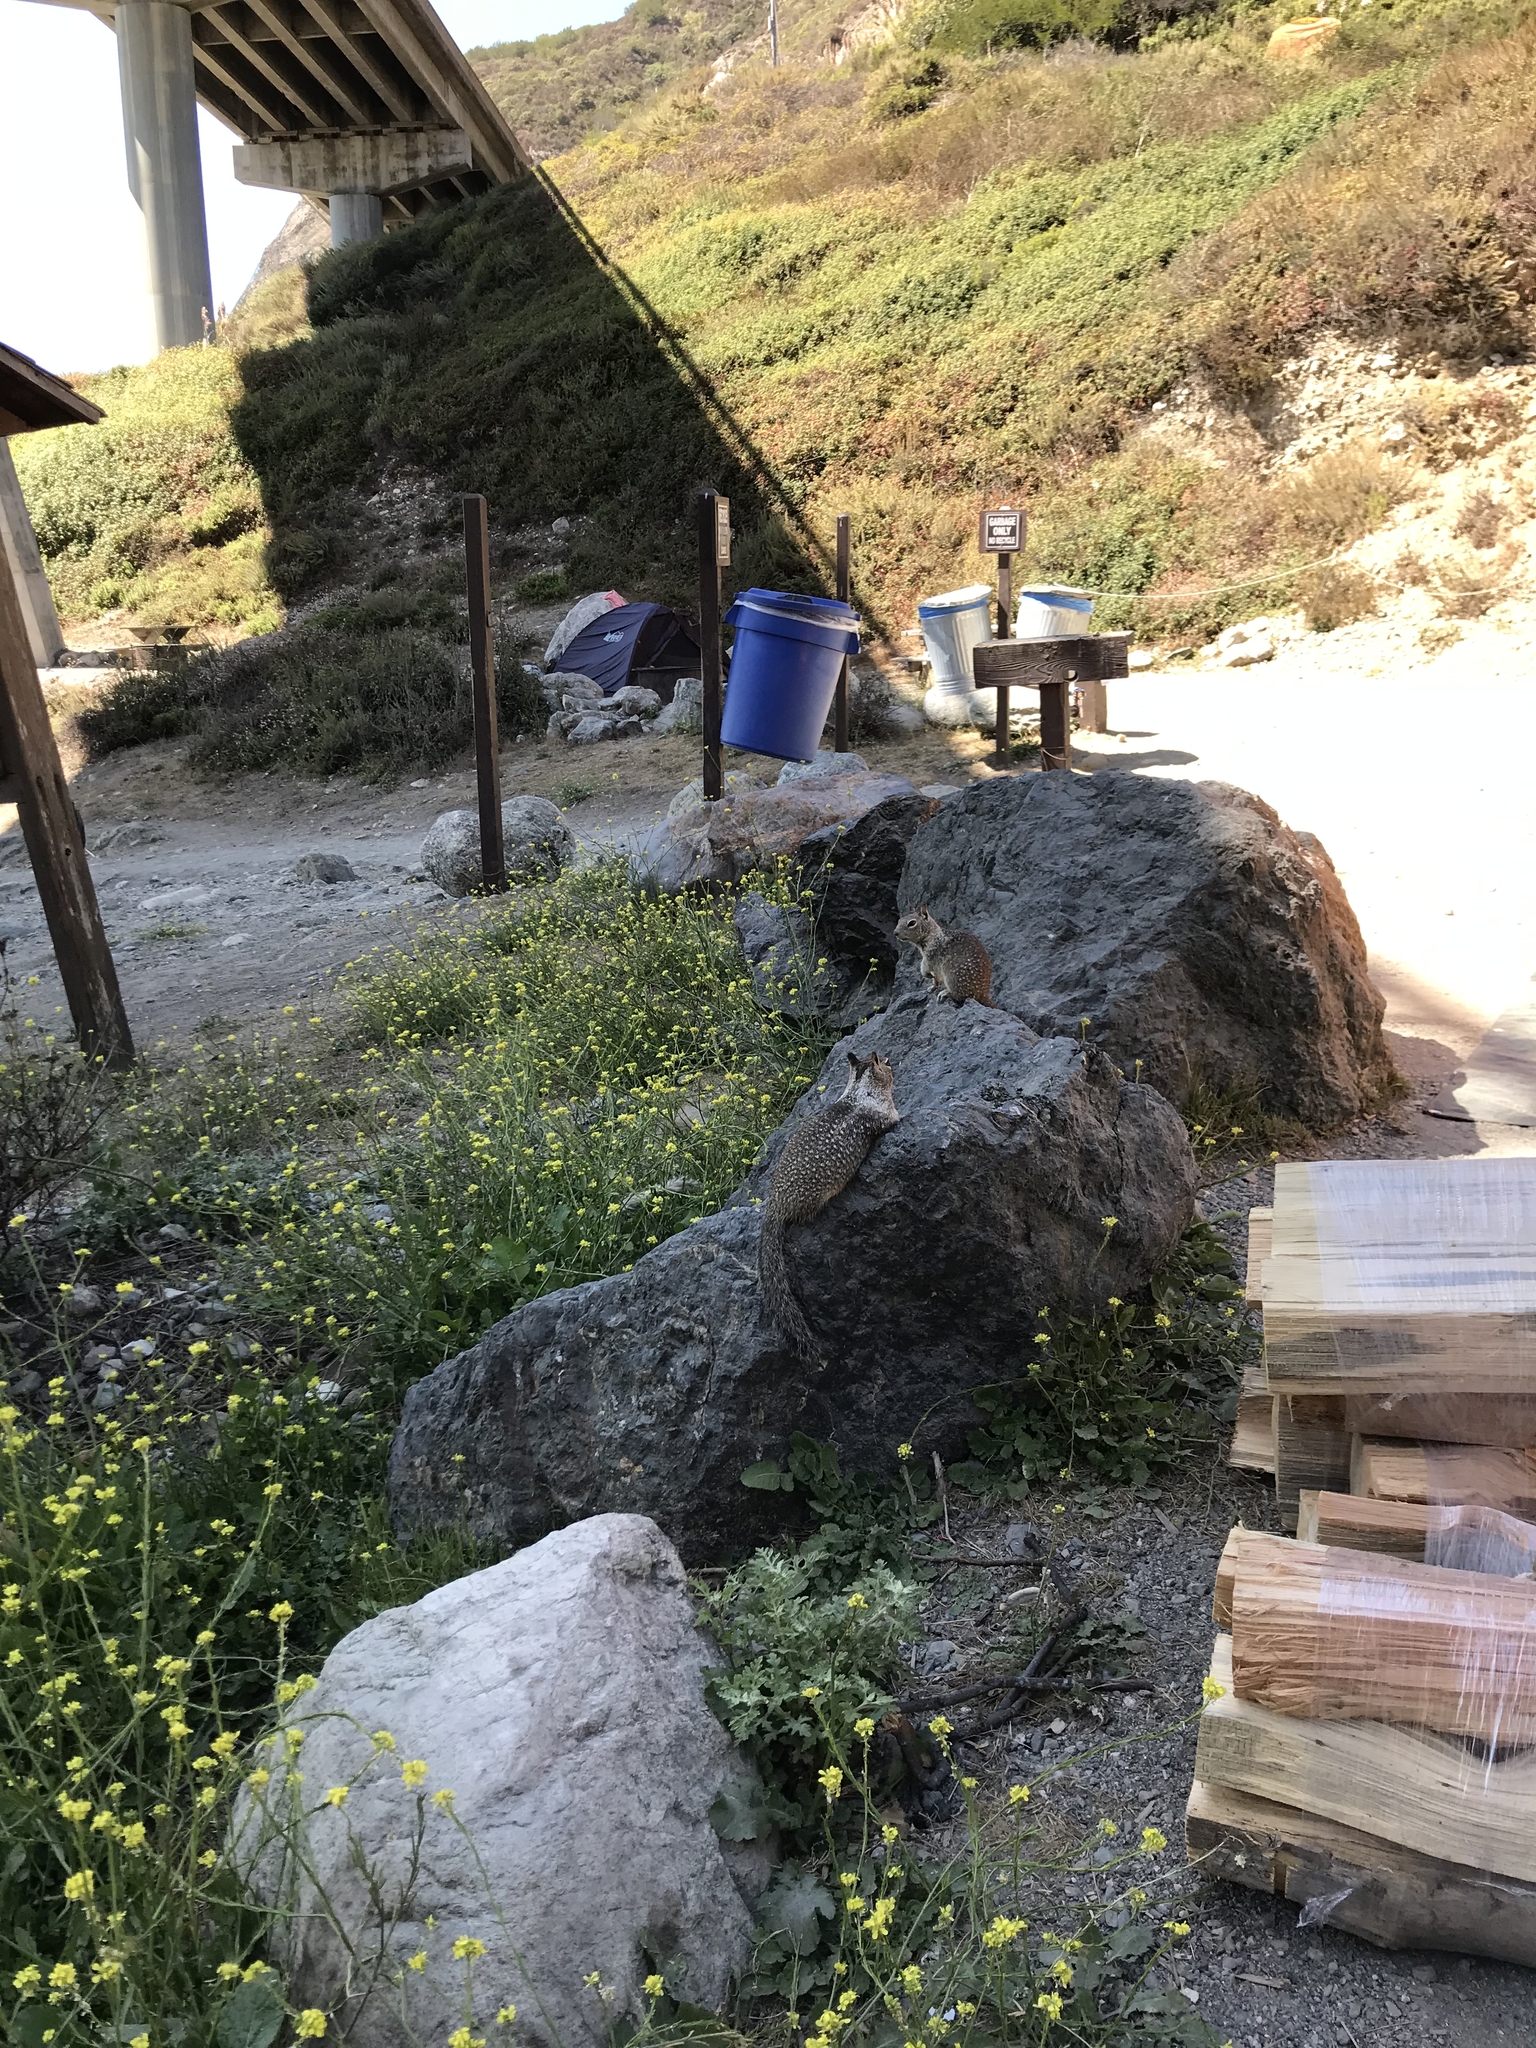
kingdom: Animalia
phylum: Chordata
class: Mammalia
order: Rodentia
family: Sciuridae
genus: Otospermophilus
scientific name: Otospermophilus beecheyi
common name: California ground squirrel
